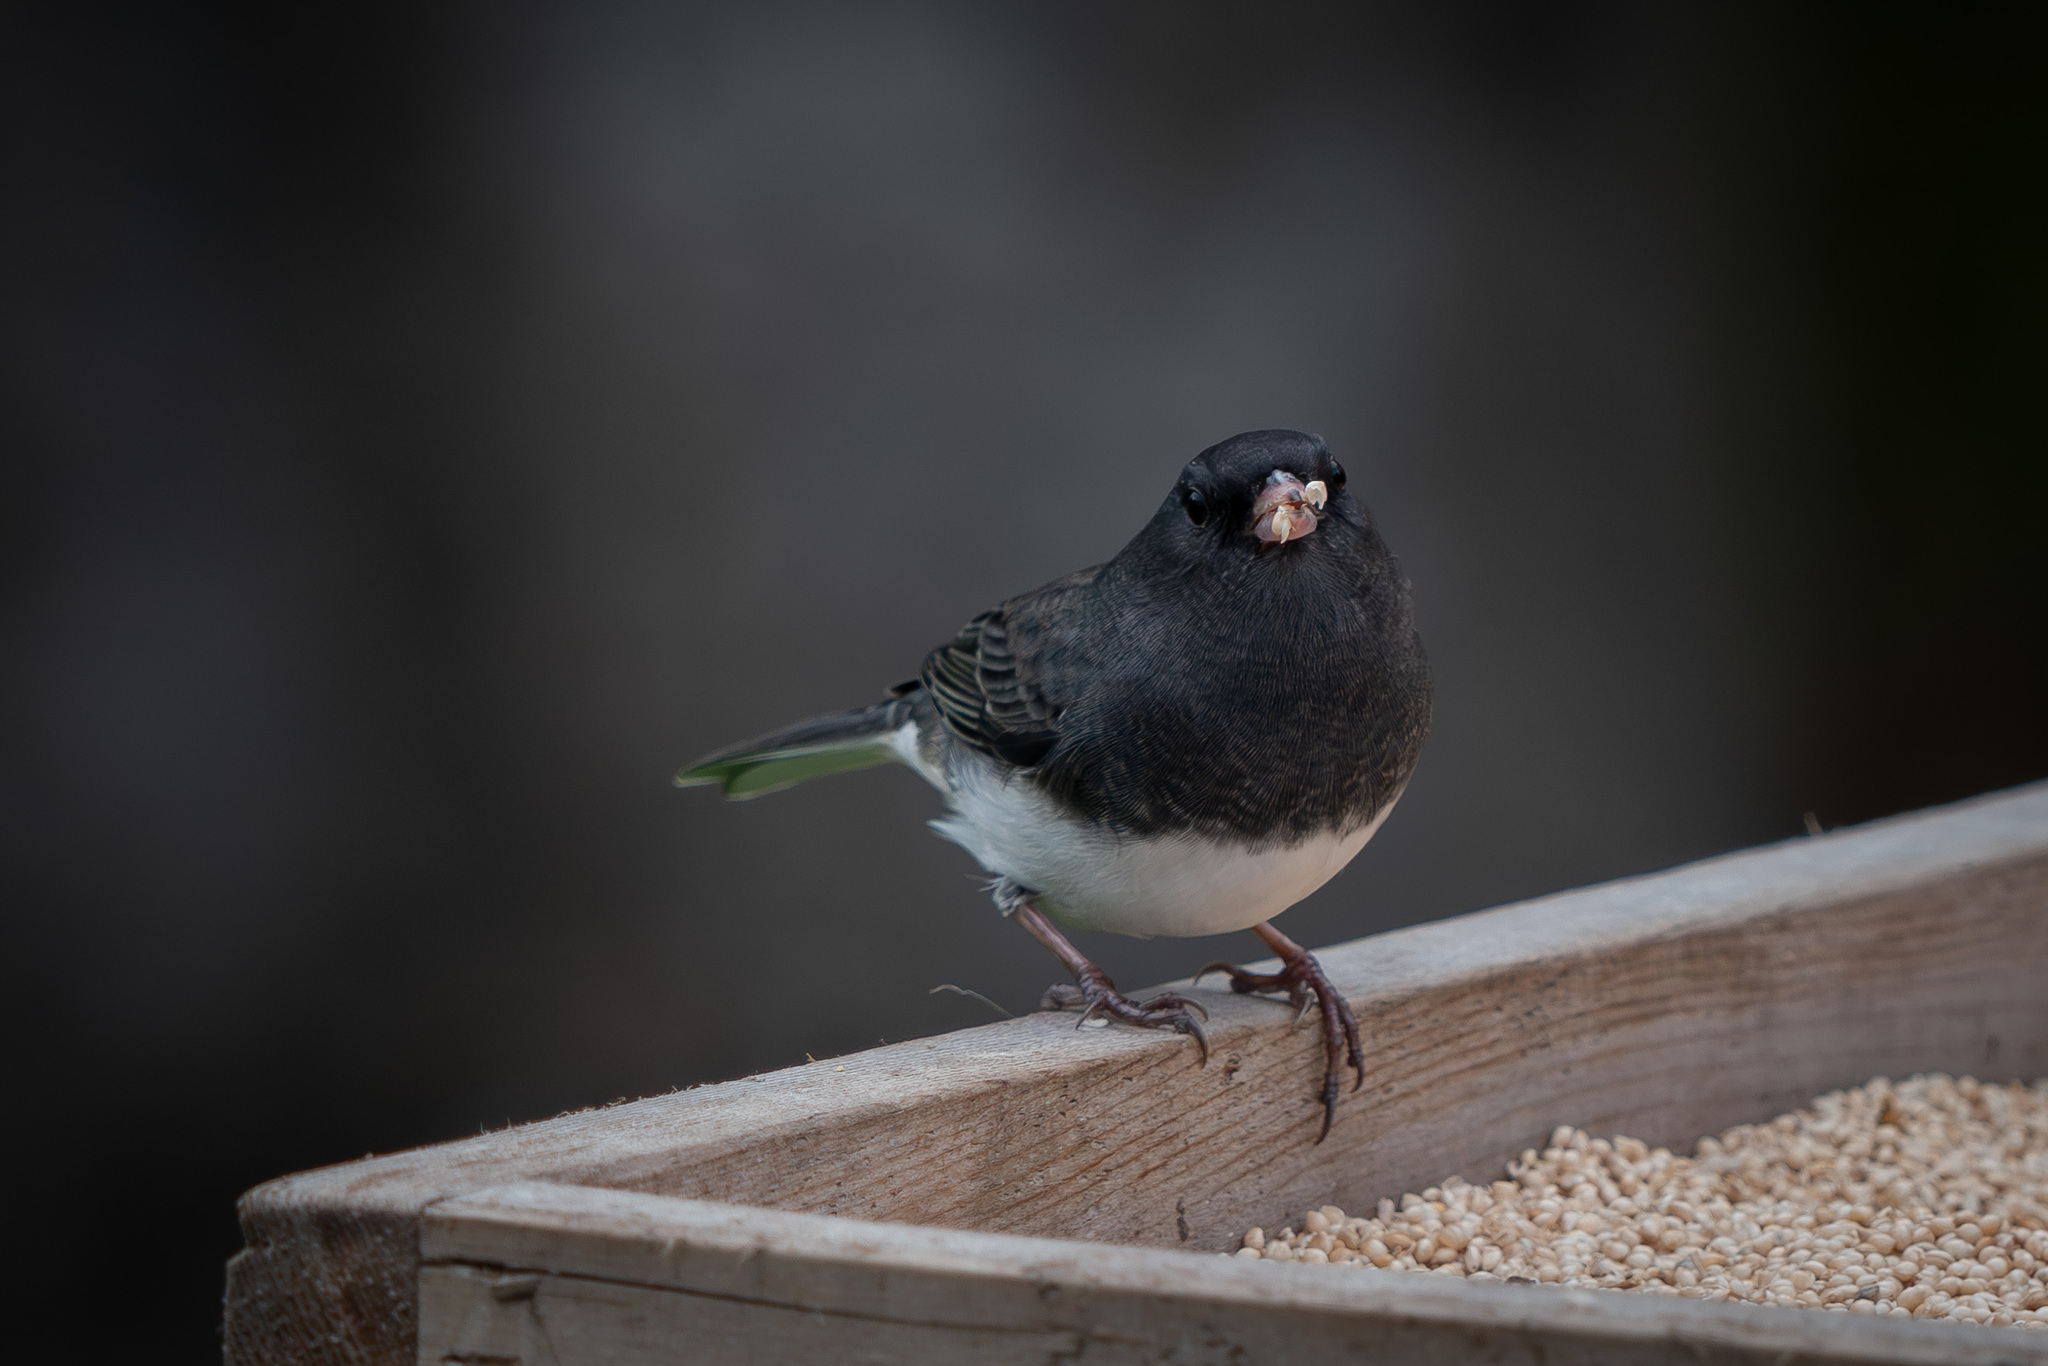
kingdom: Animalia
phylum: Chordata
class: Aves
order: Passeriformes
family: Passerellidae
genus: Junco
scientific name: Junco hyemalis
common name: Dark-eyed junco
